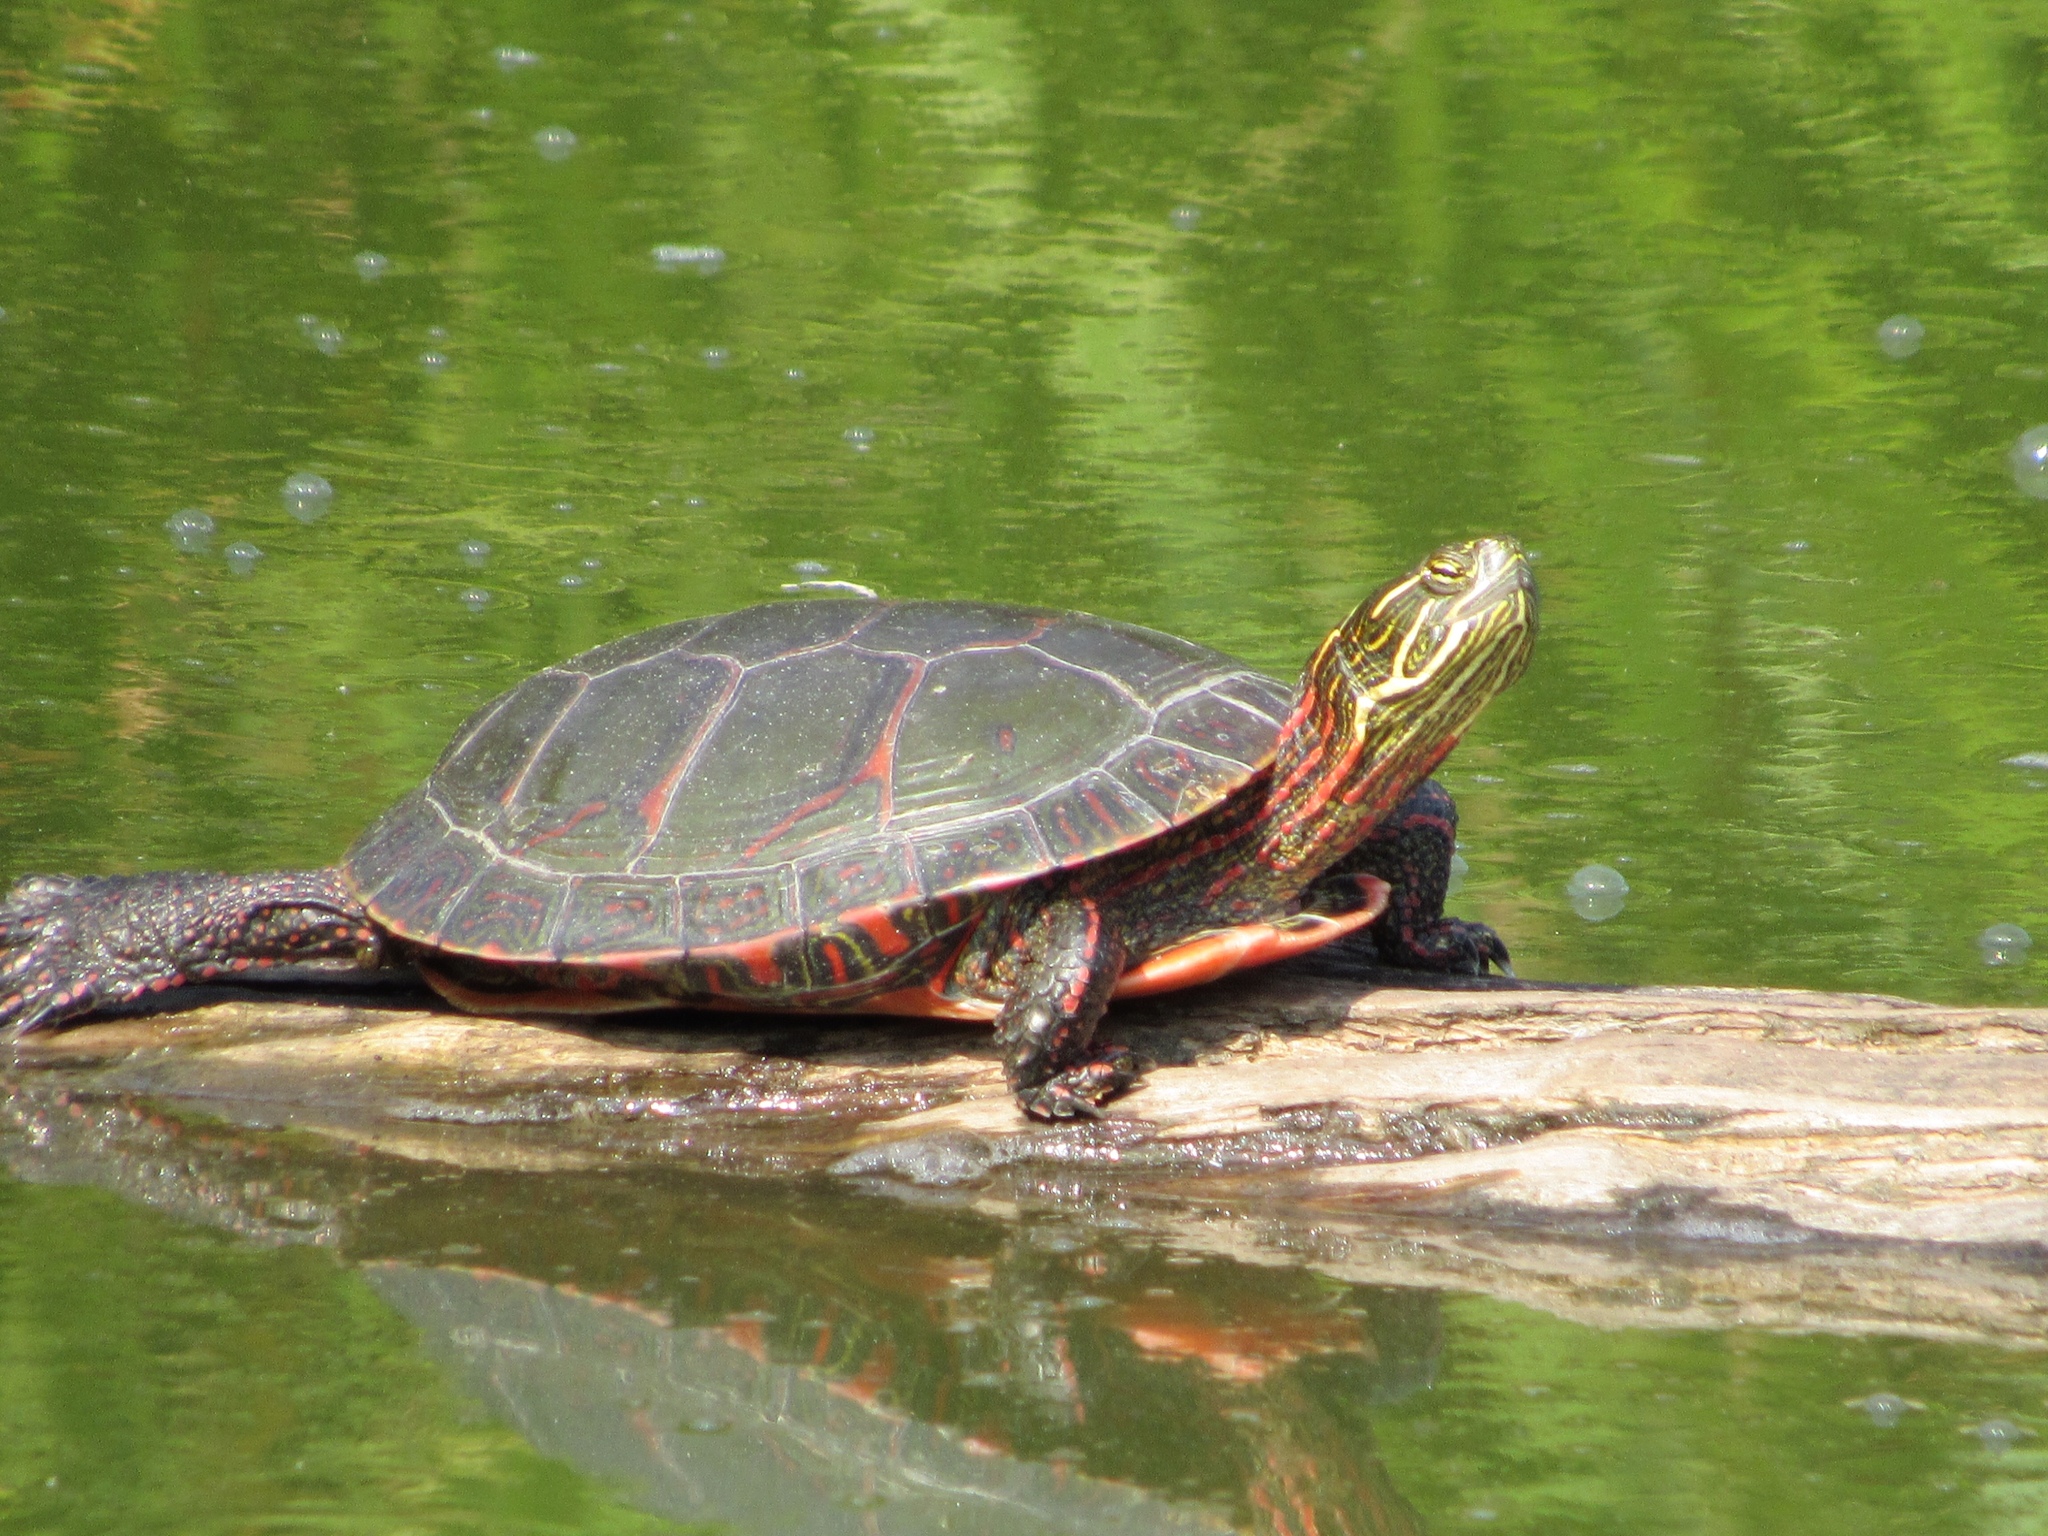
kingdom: Animalia
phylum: Chordata
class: Testudines
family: Emydidae
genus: Chrysemys
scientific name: Chrysemys picta
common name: Painted turtle
